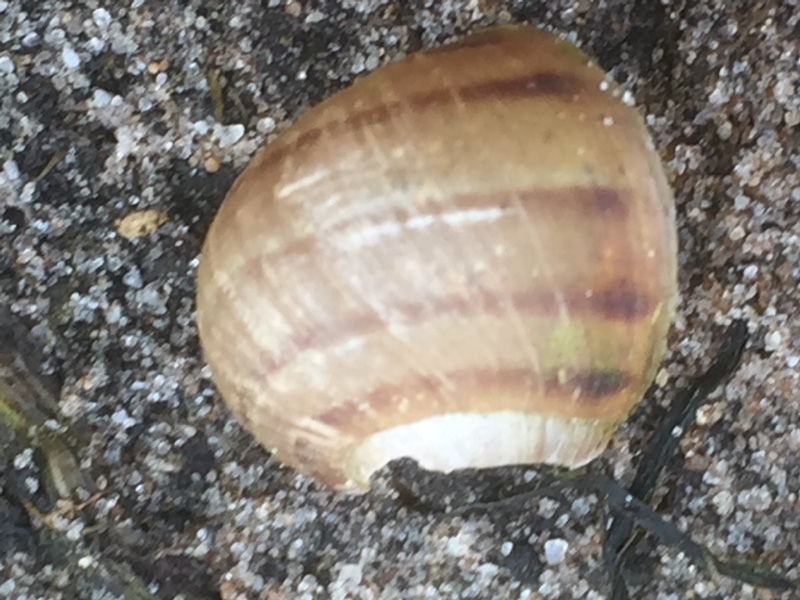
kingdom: Animalia
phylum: Mollusca
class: Gastropoda
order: Stylommatophora
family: Helicidae
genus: Cornu
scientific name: Cornu aspersum
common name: Brown garden snail
